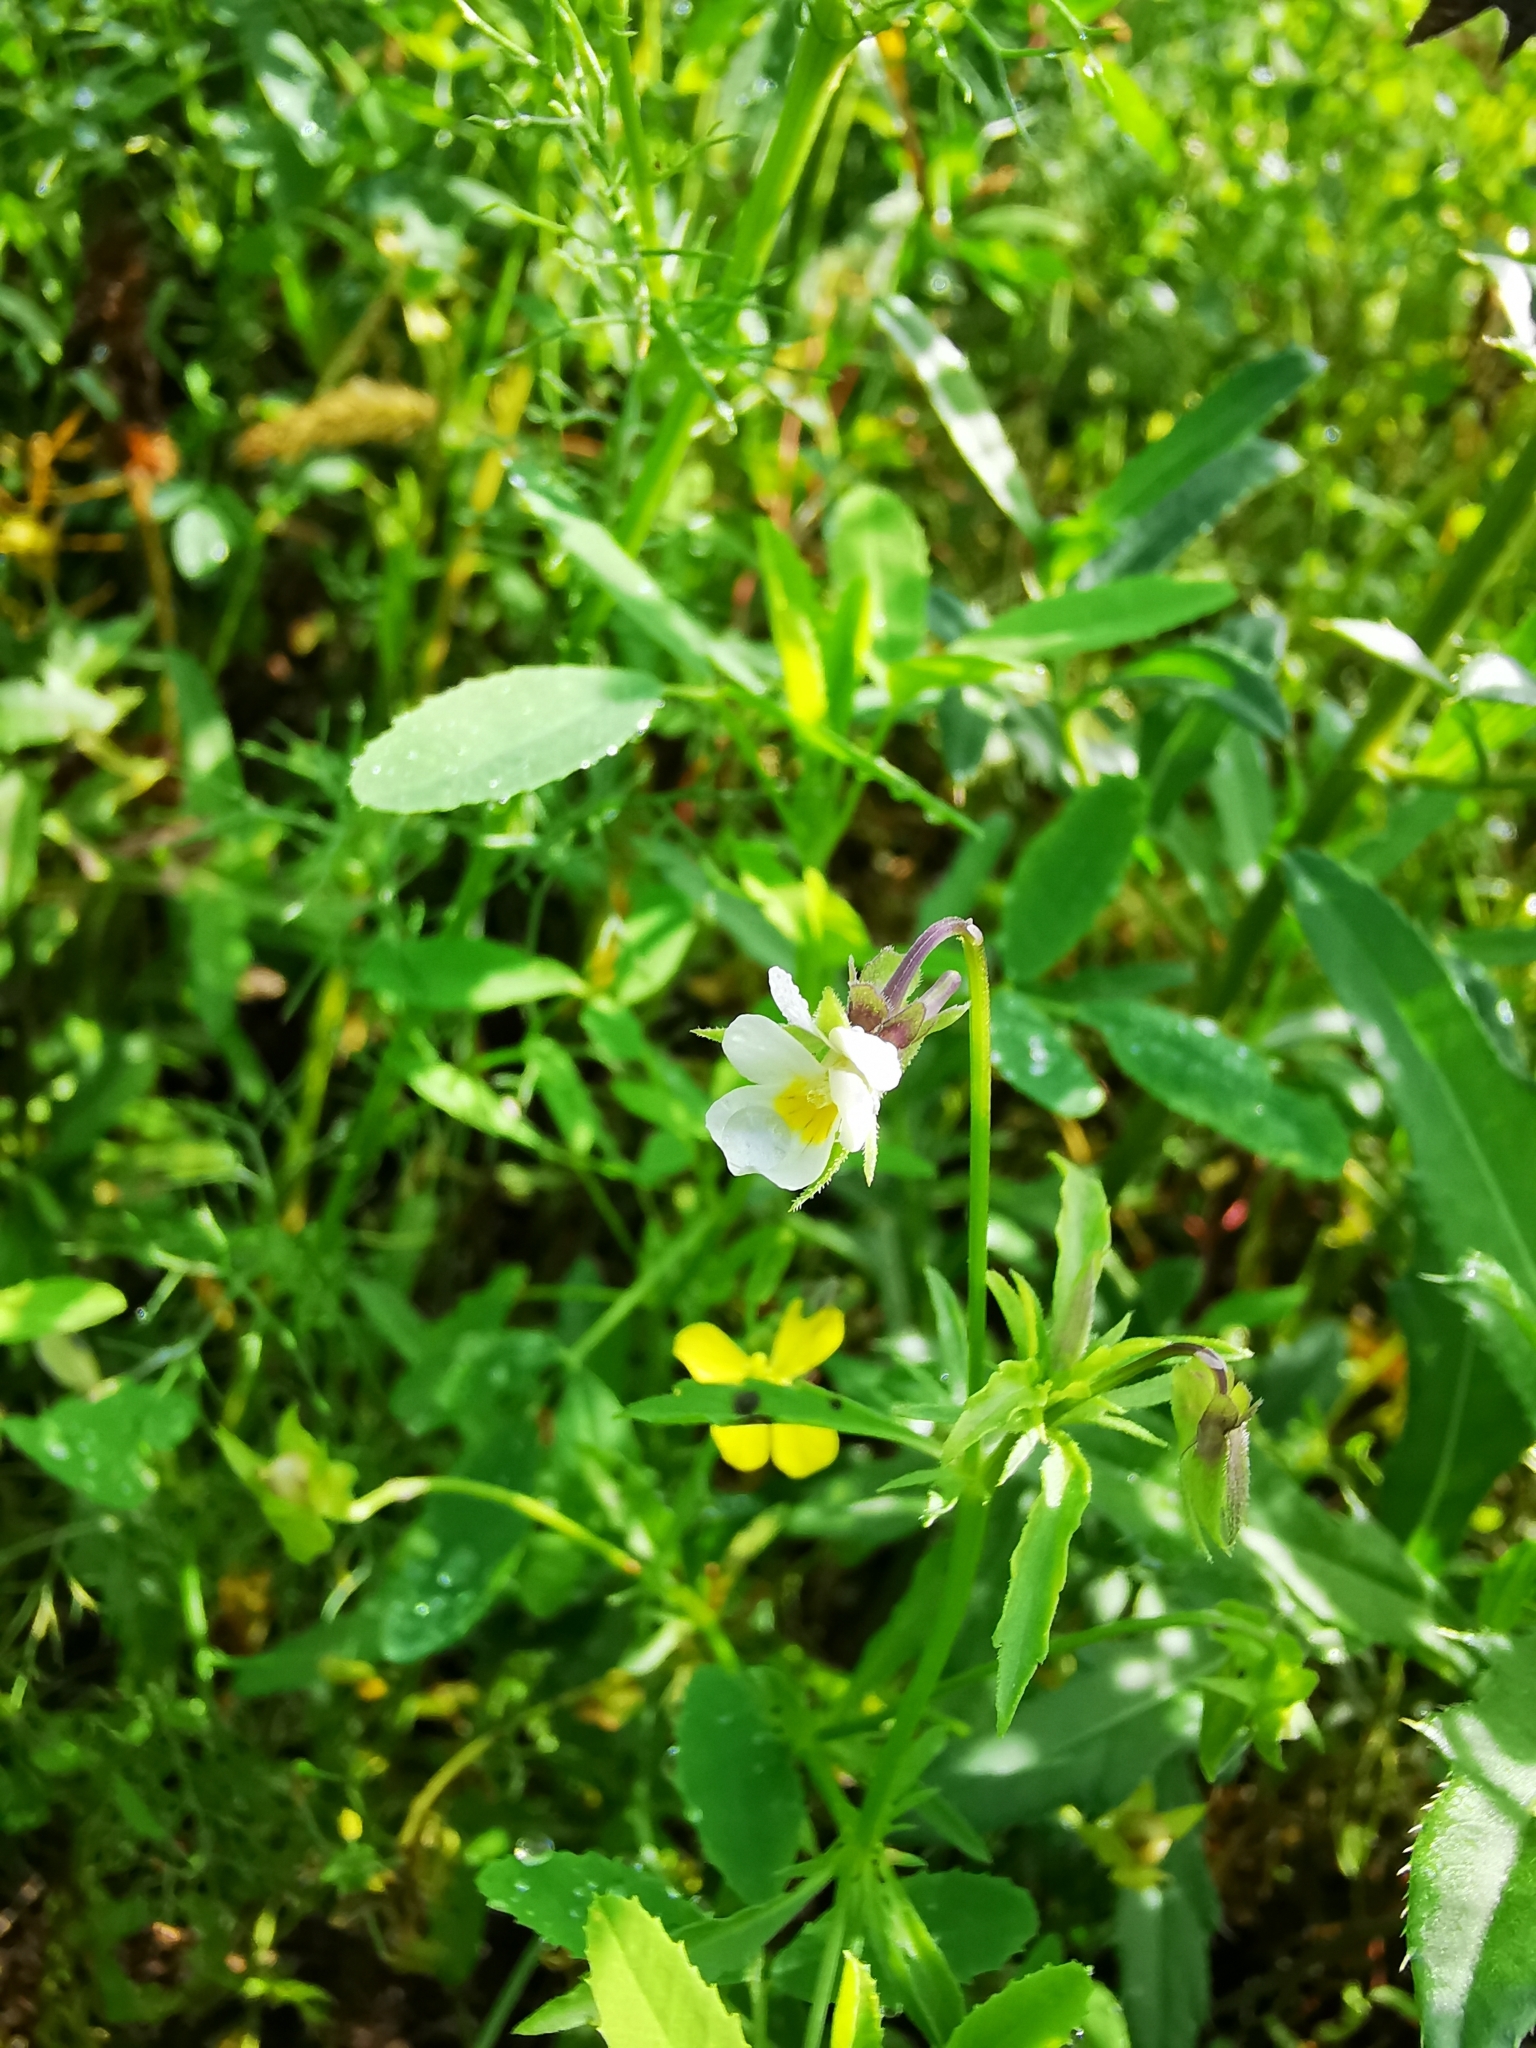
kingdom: Plantae
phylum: Tracheophyta
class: Magnoliopsida
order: Malpighiales
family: Violaceae
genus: Viola
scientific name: Viola arvensis
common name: Field pansy
